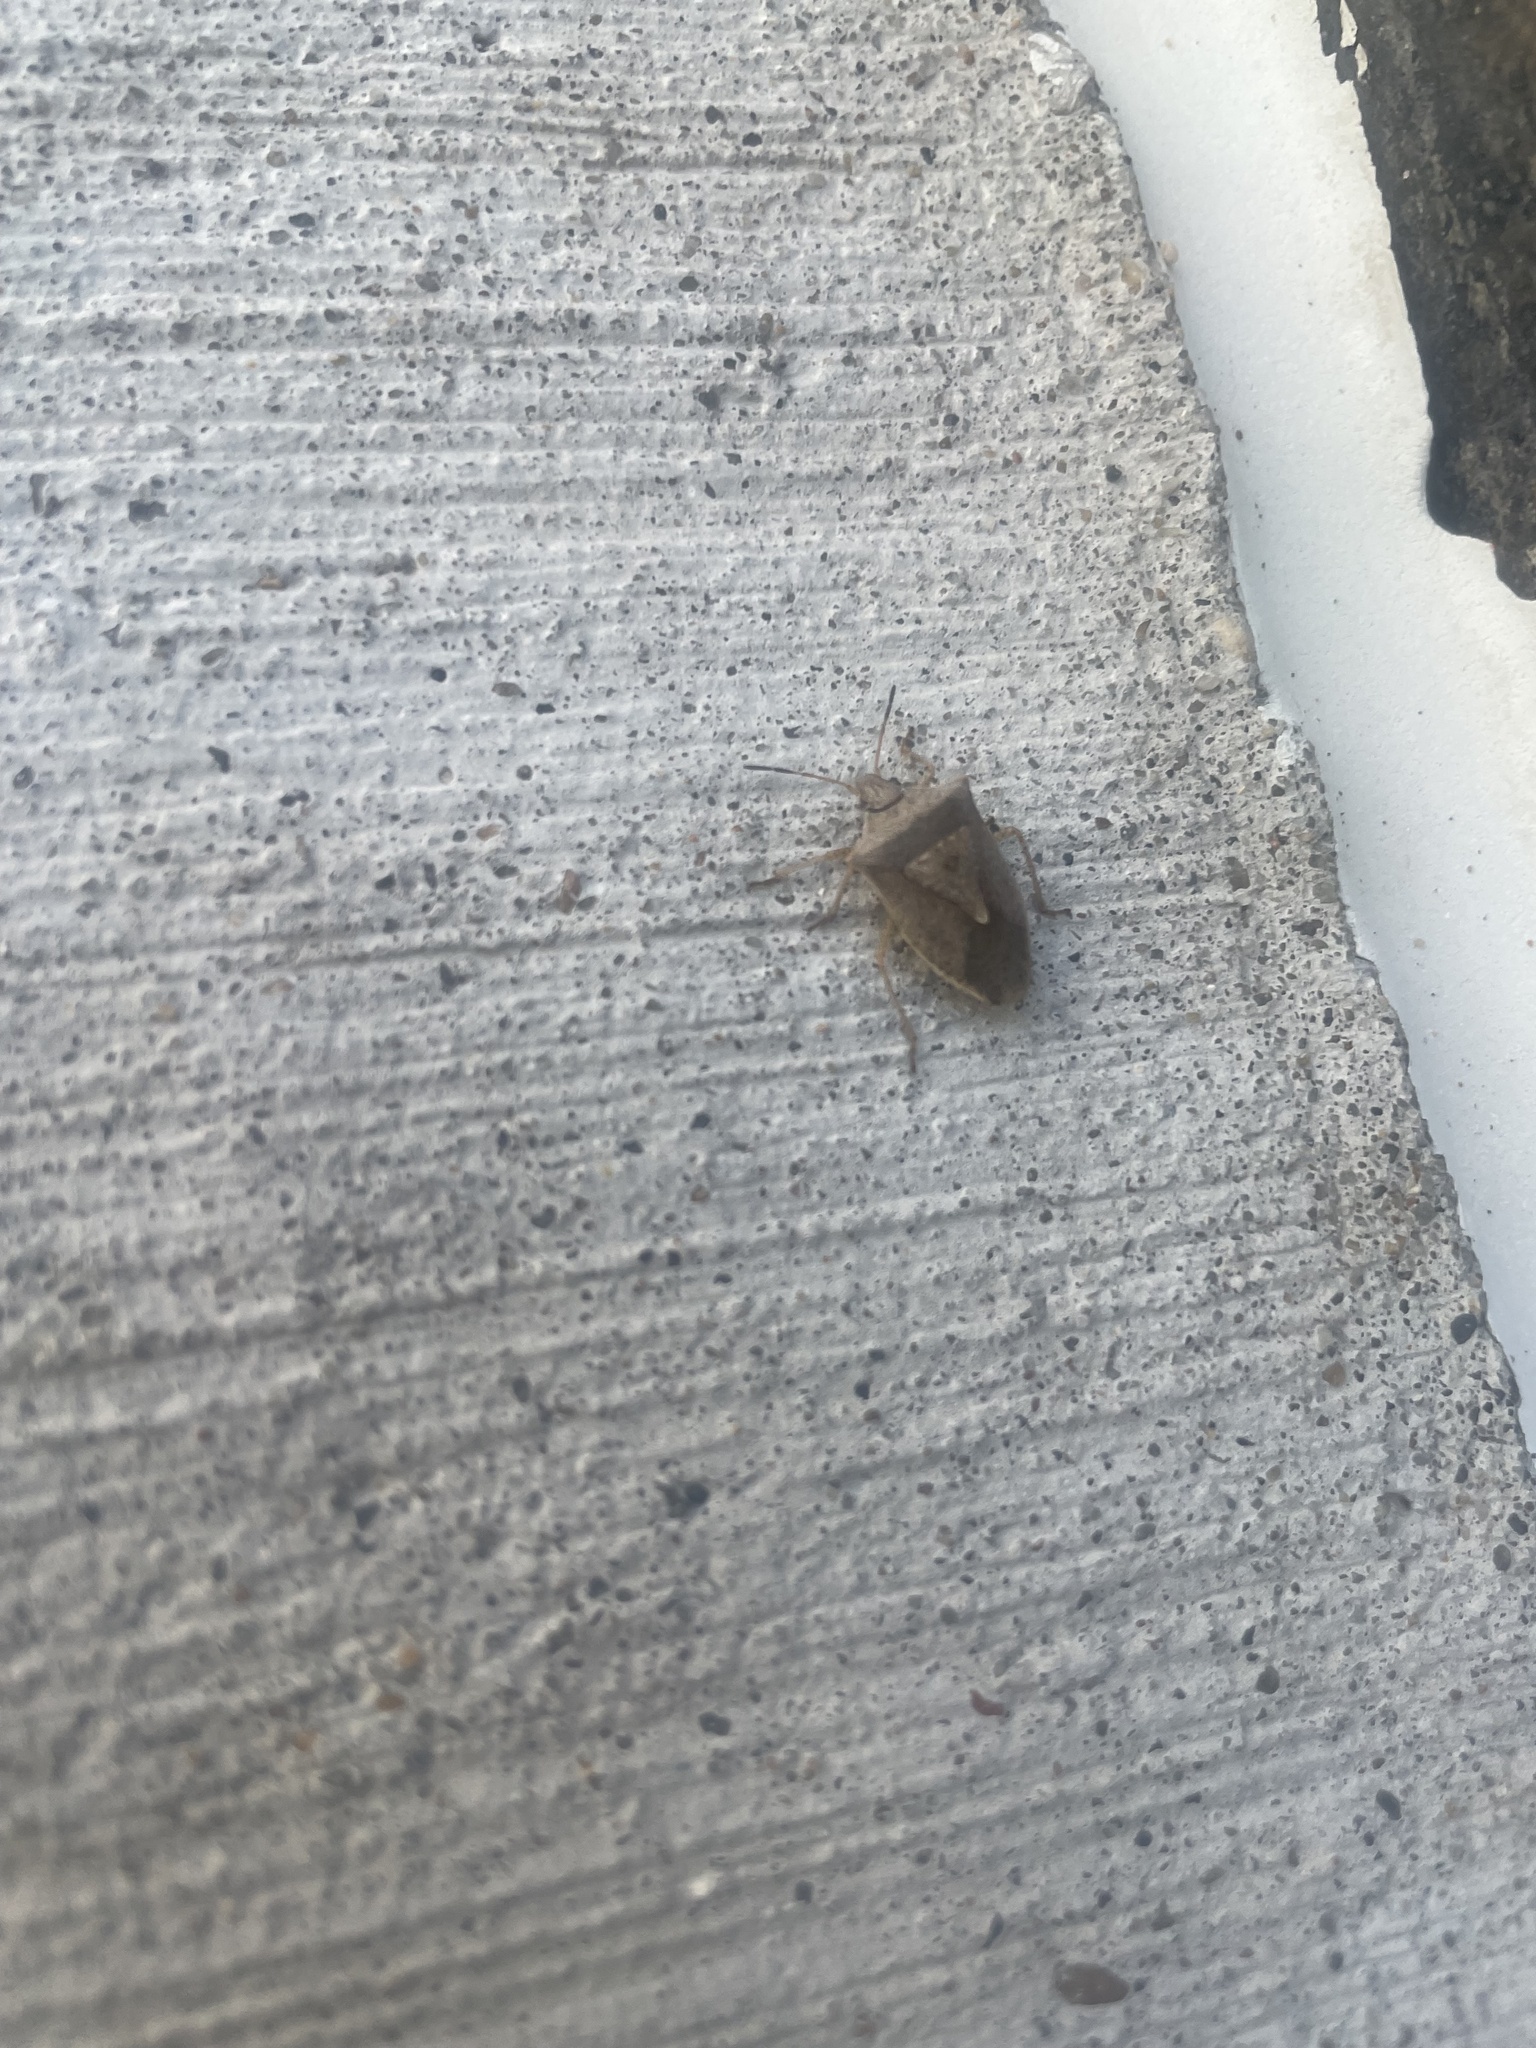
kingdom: Animalia
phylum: Arthropoda
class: Insecta
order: Hemiptera
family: Pentatomidae
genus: Euschistus
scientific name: Euschistus servus
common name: Brown stink bug
